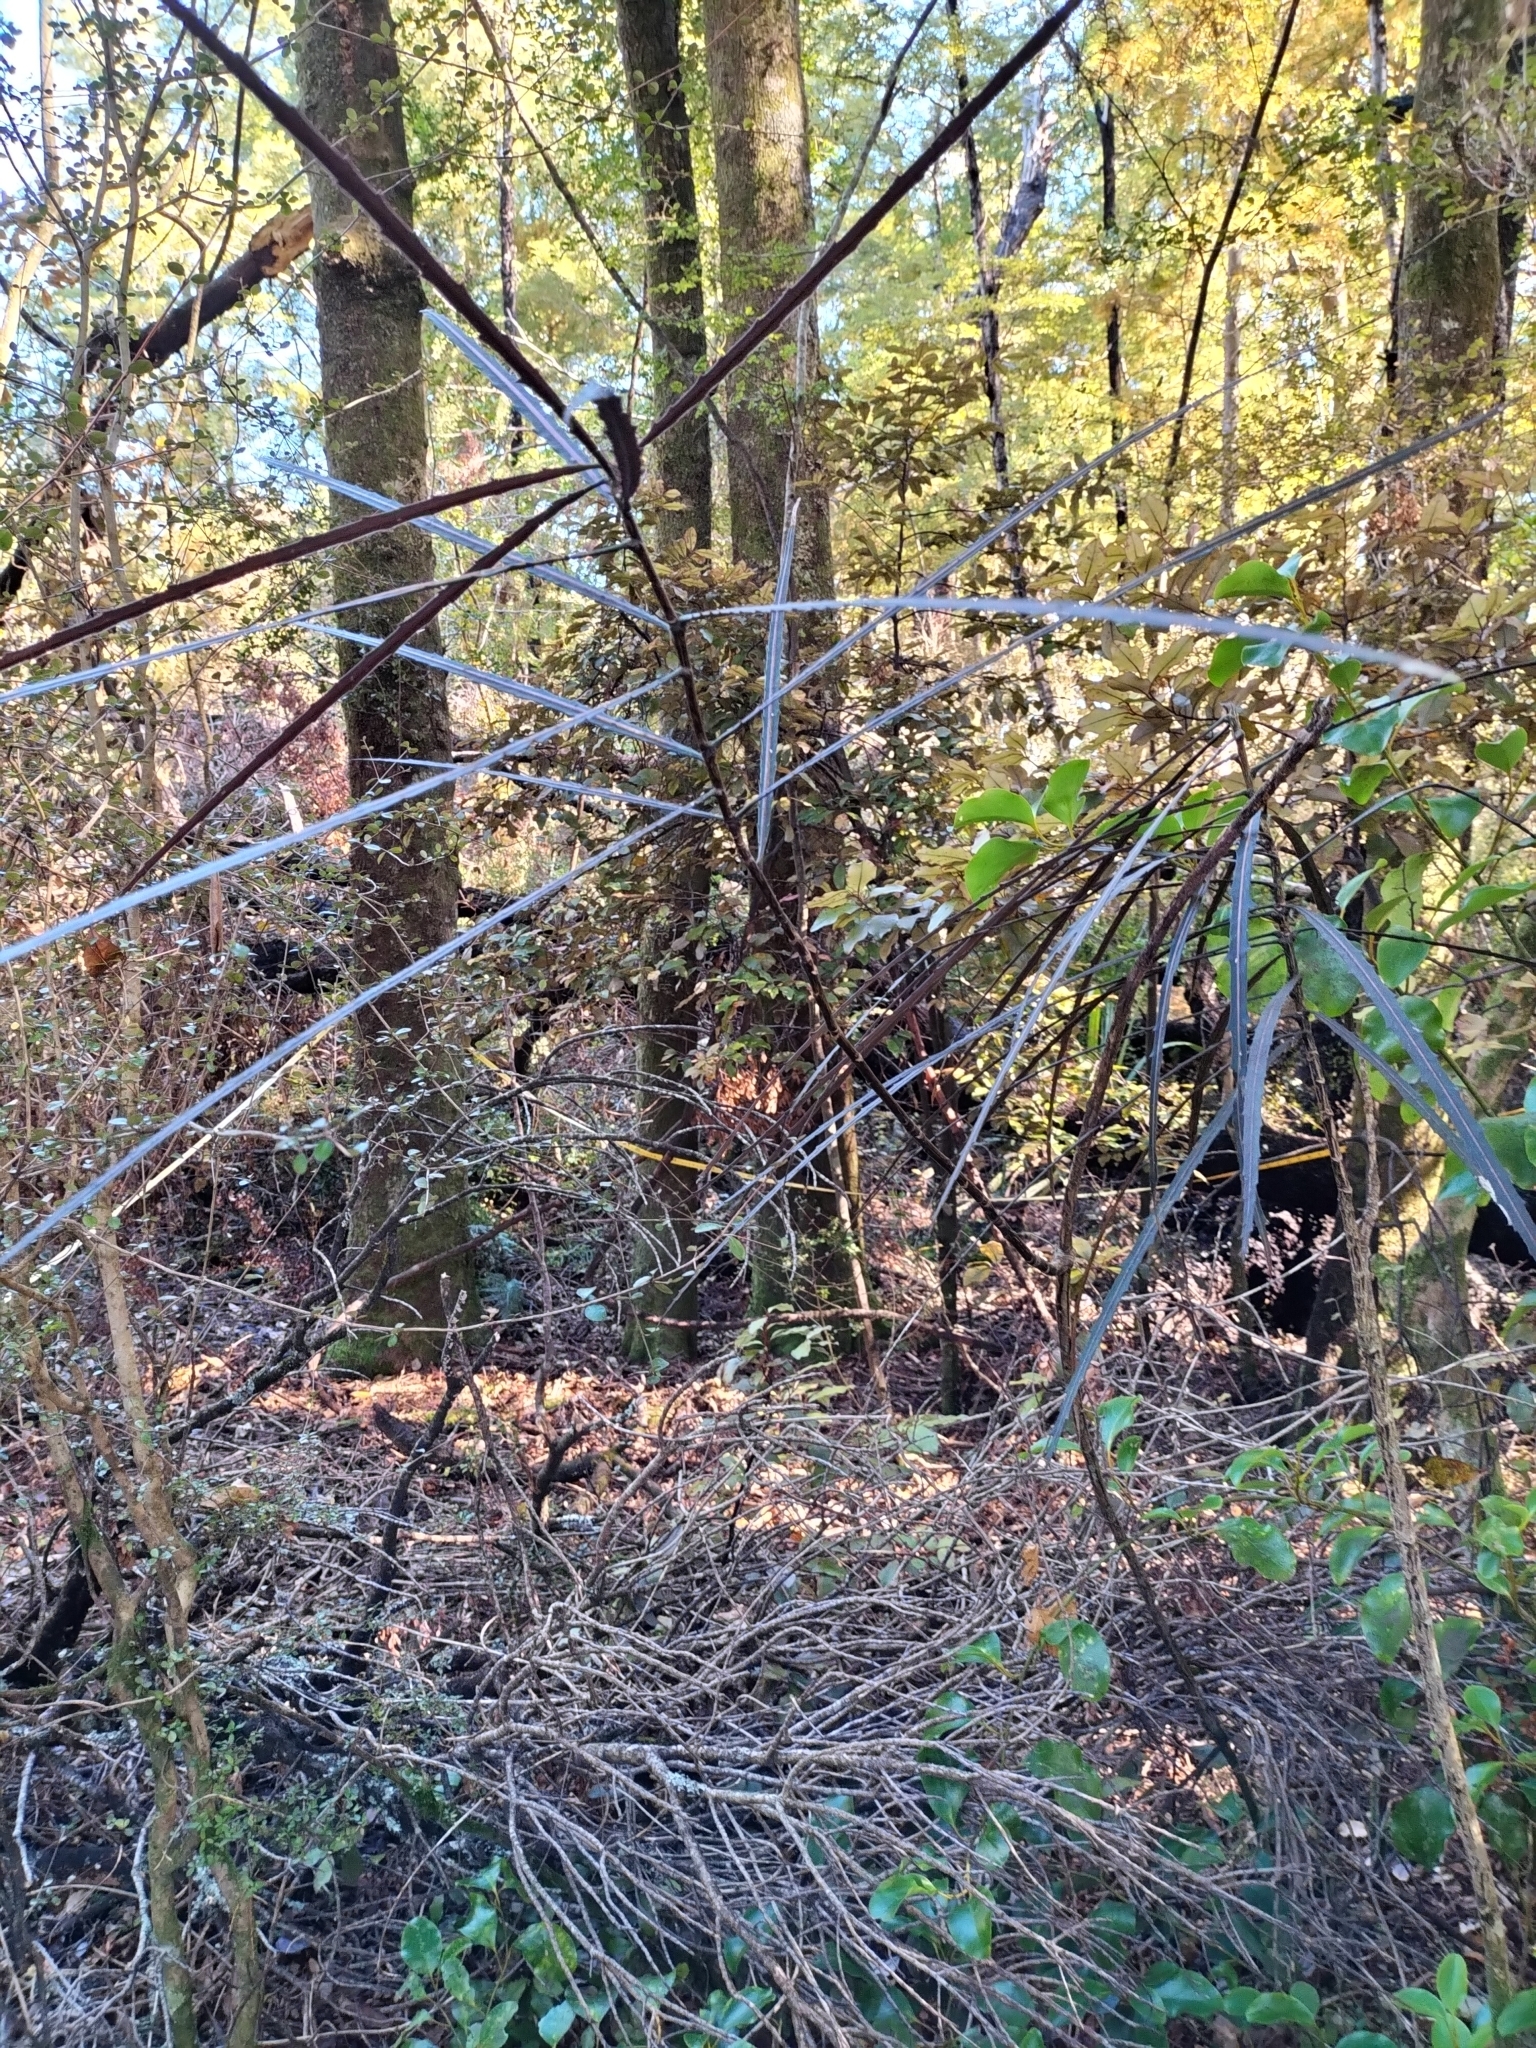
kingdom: Plantae
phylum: Tracheophyta
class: Magnoliopsida
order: Apiales
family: Araliaceae
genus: Pseudopanax
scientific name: Pseudopanax crassifolius
